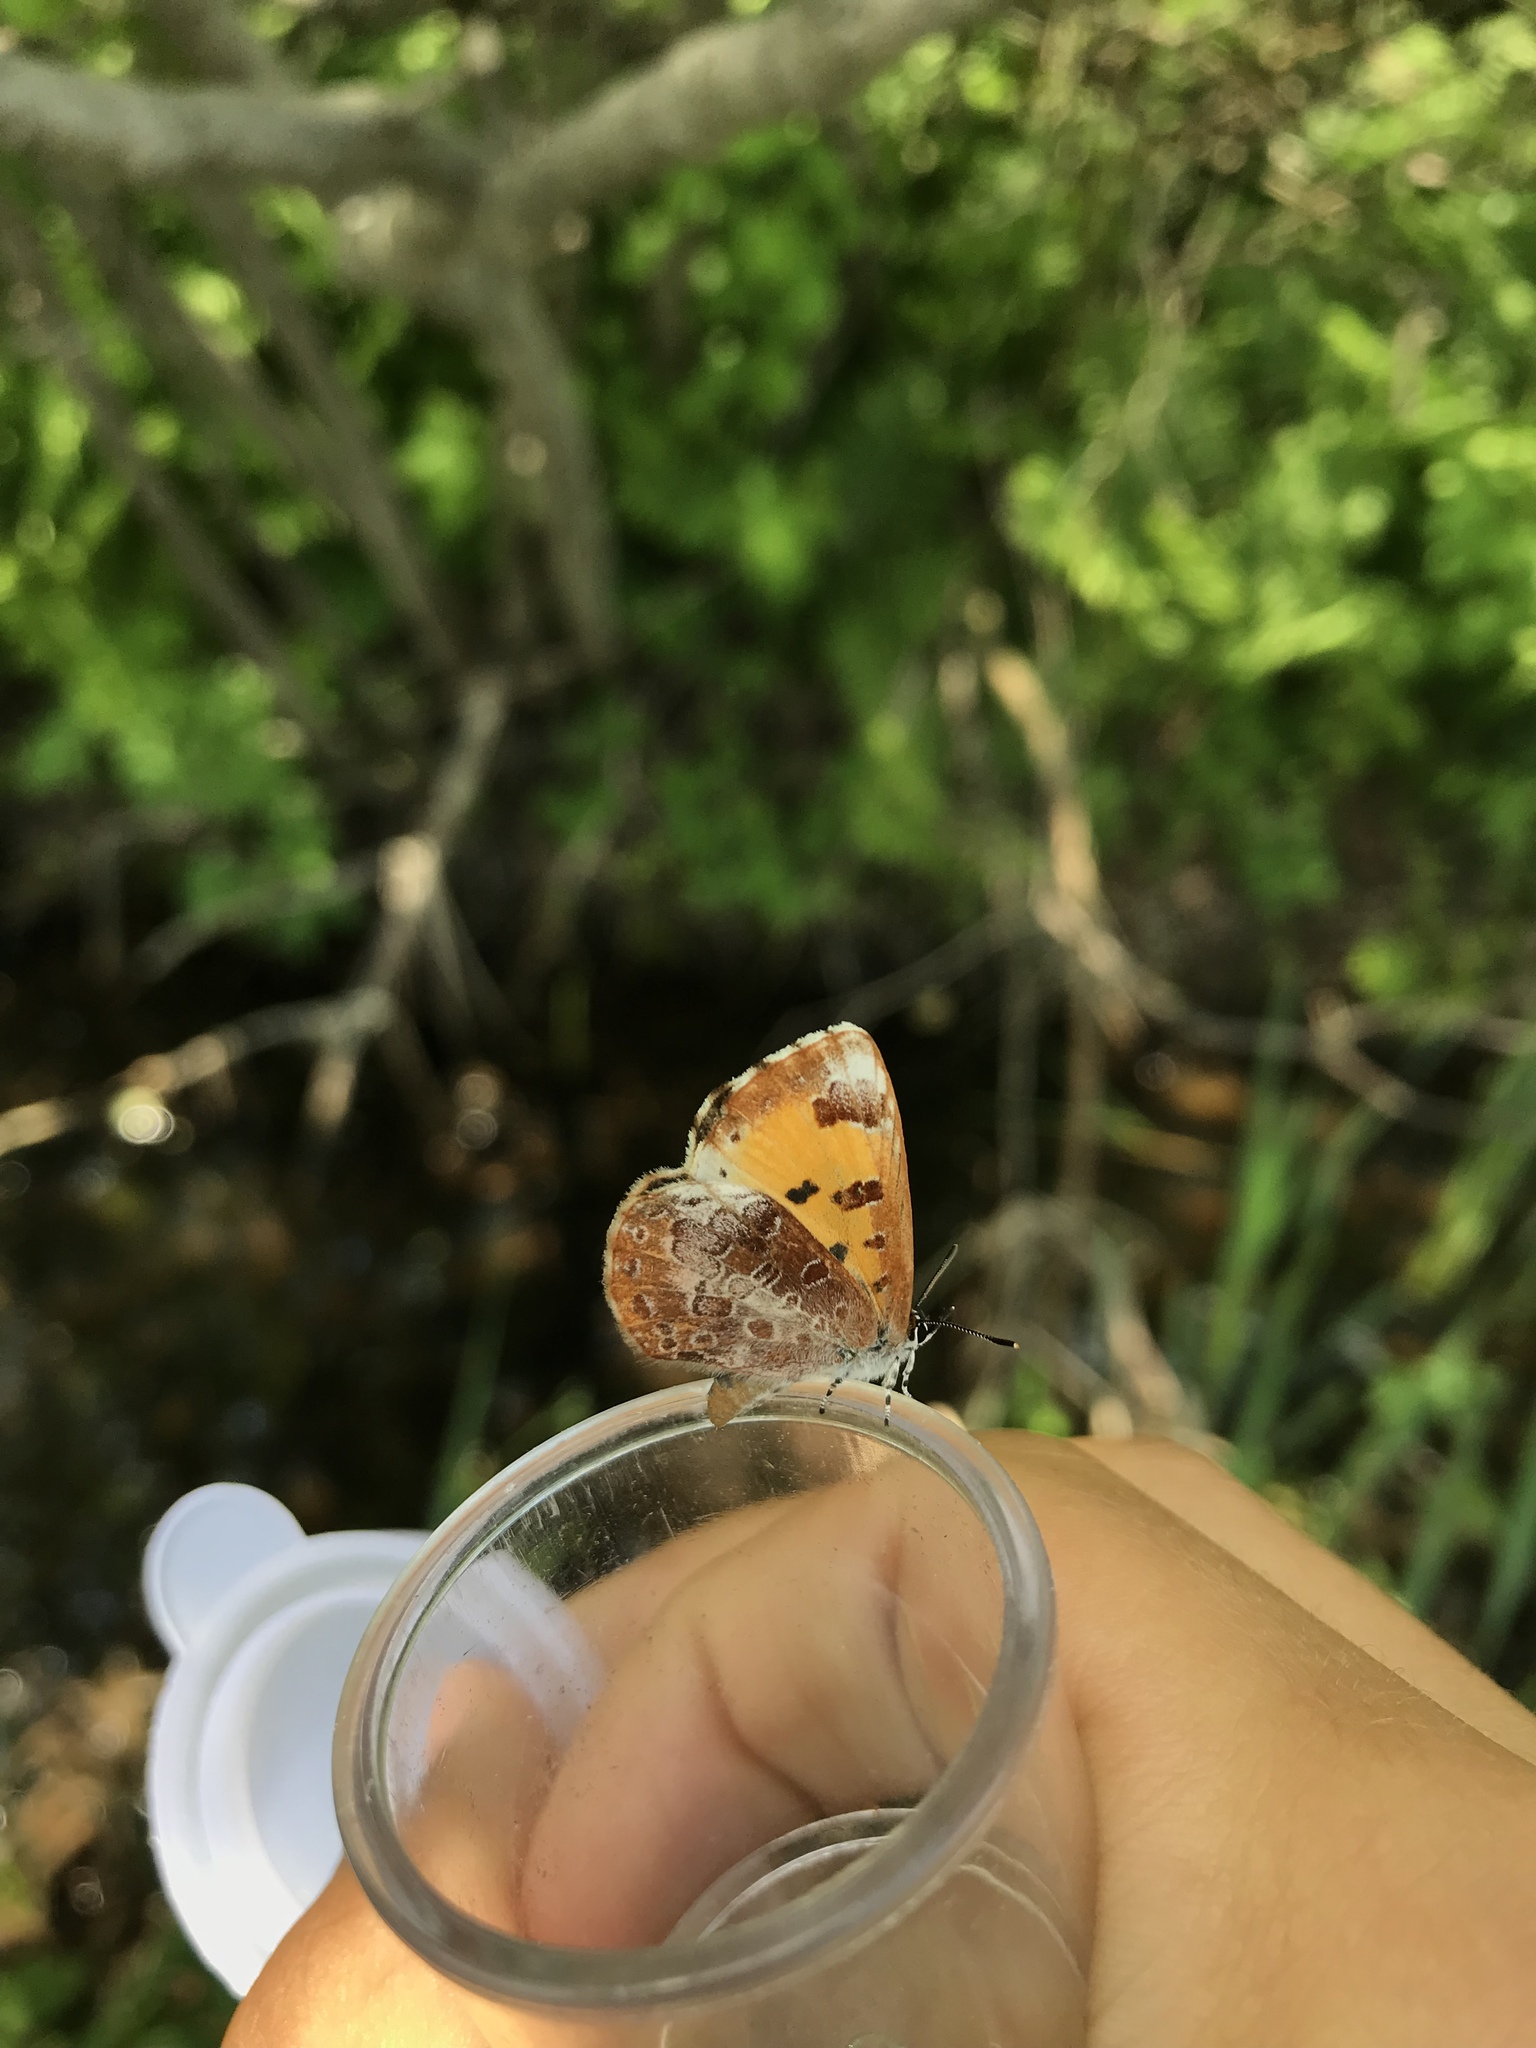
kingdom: Animalia
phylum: Arthropoda
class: Insecta
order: Lepidoptera
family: Lycaenidae
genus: Feniseca
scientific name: Feniseca tarquinius
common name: Harvester
